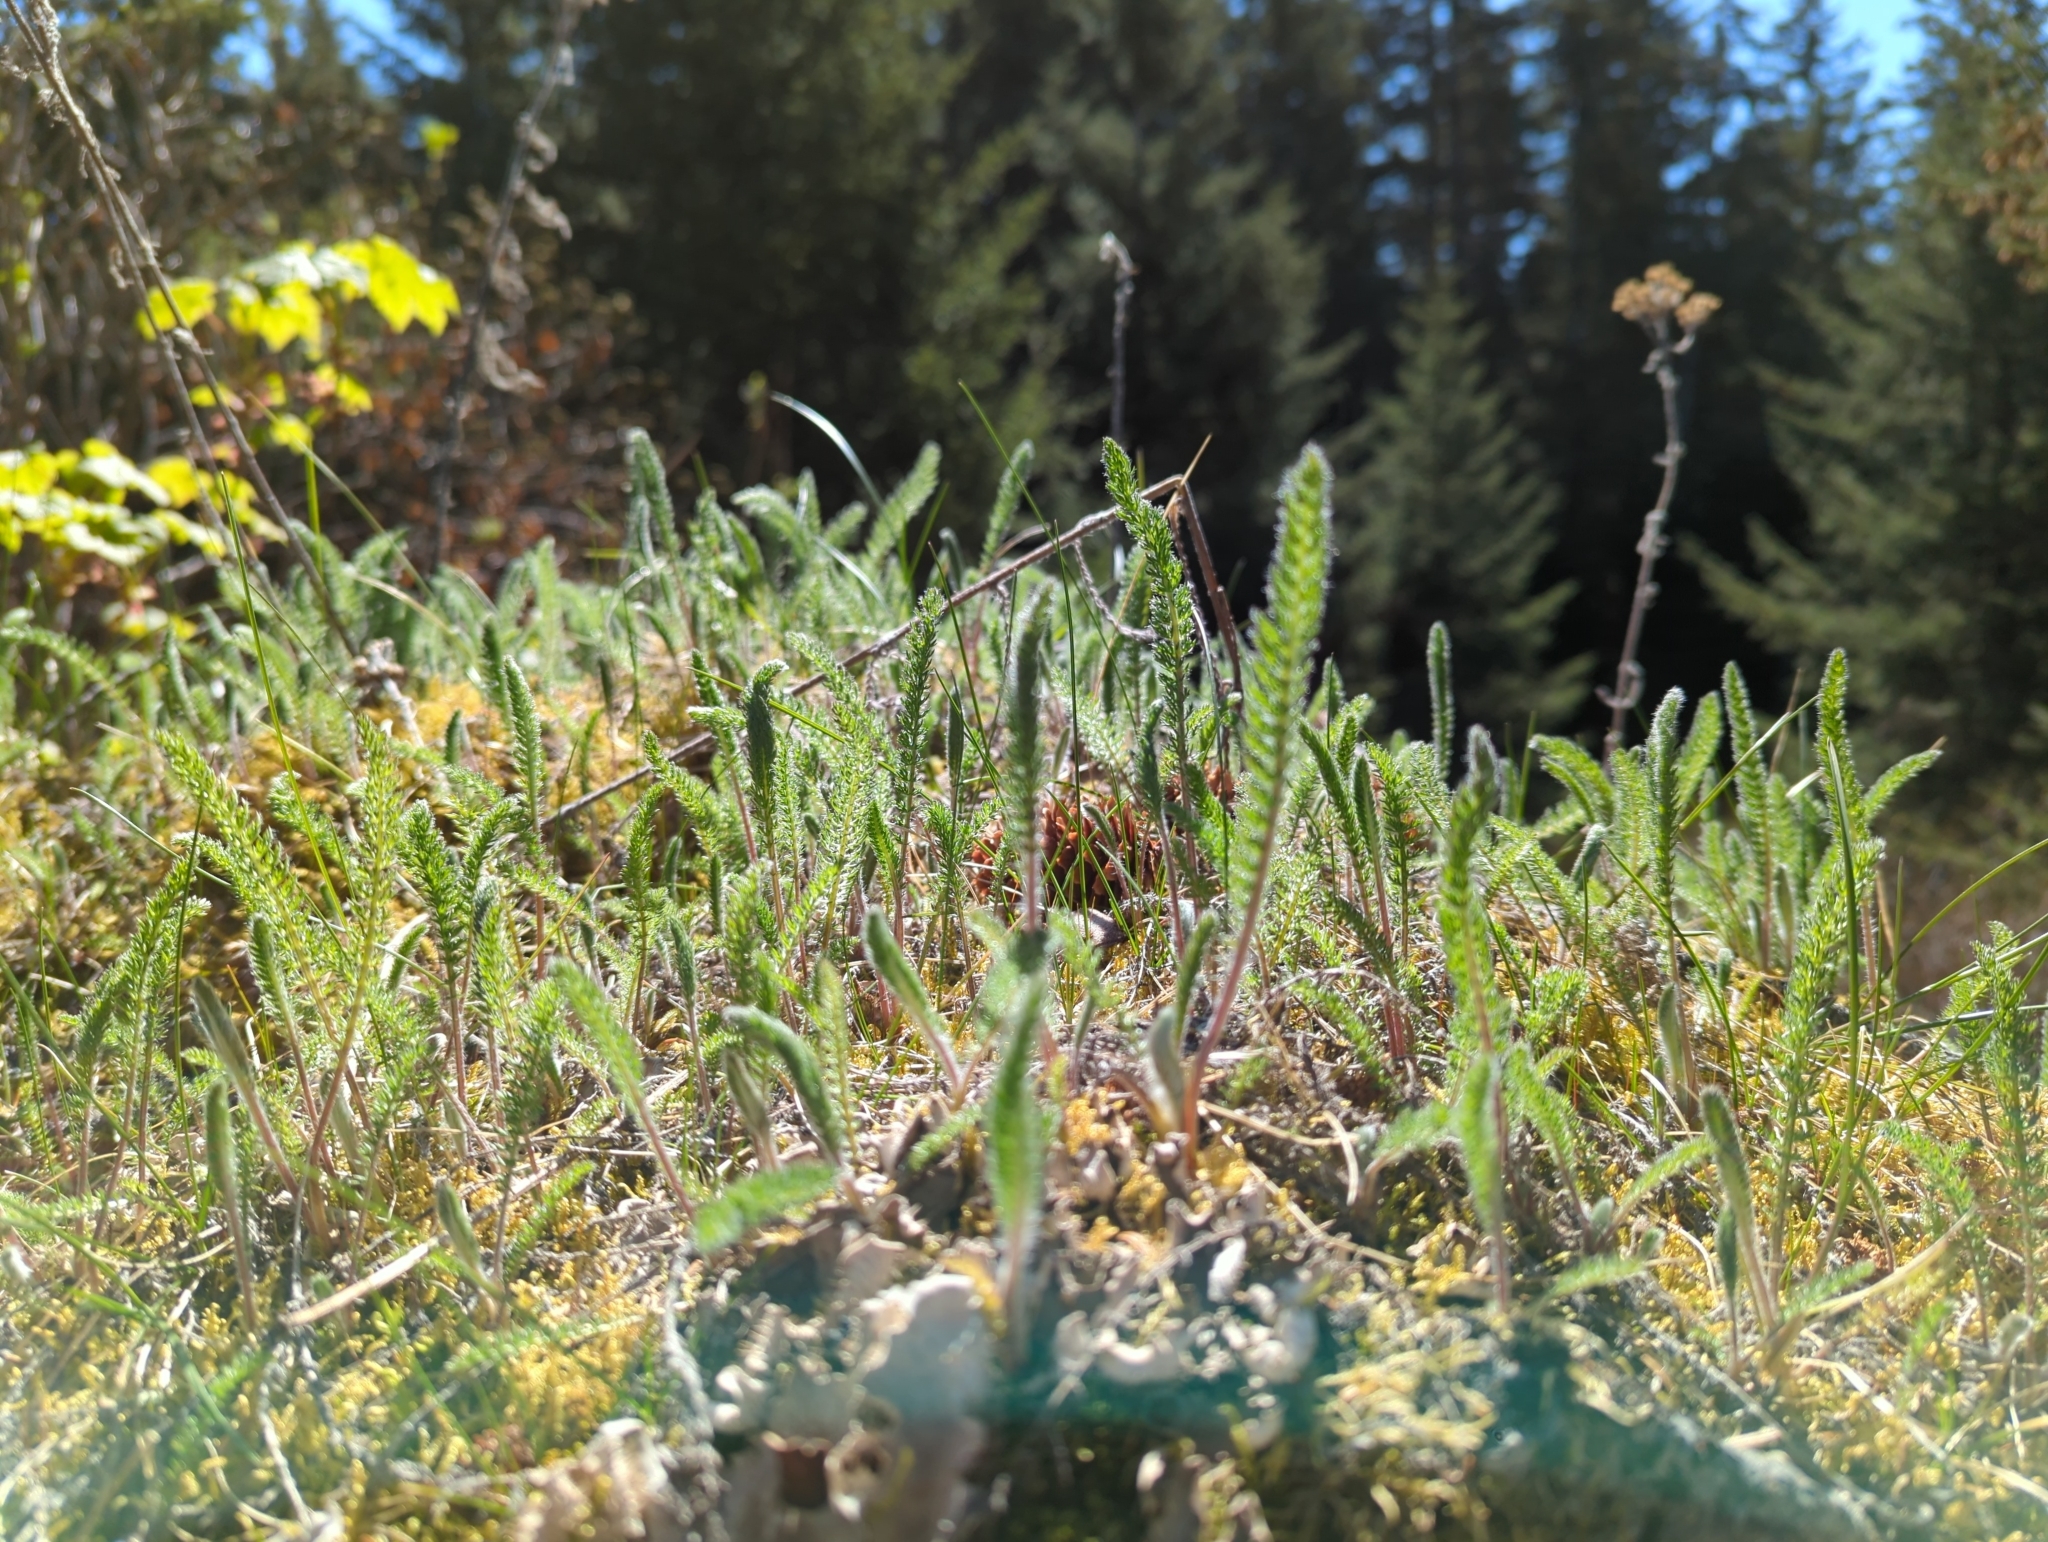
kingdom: Plantae
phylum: Tracheophyta
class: Magnoliopsida
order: Asterales
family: Asteraceae
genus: Achillea
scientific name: Achillea millefolium
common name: Yarrow
